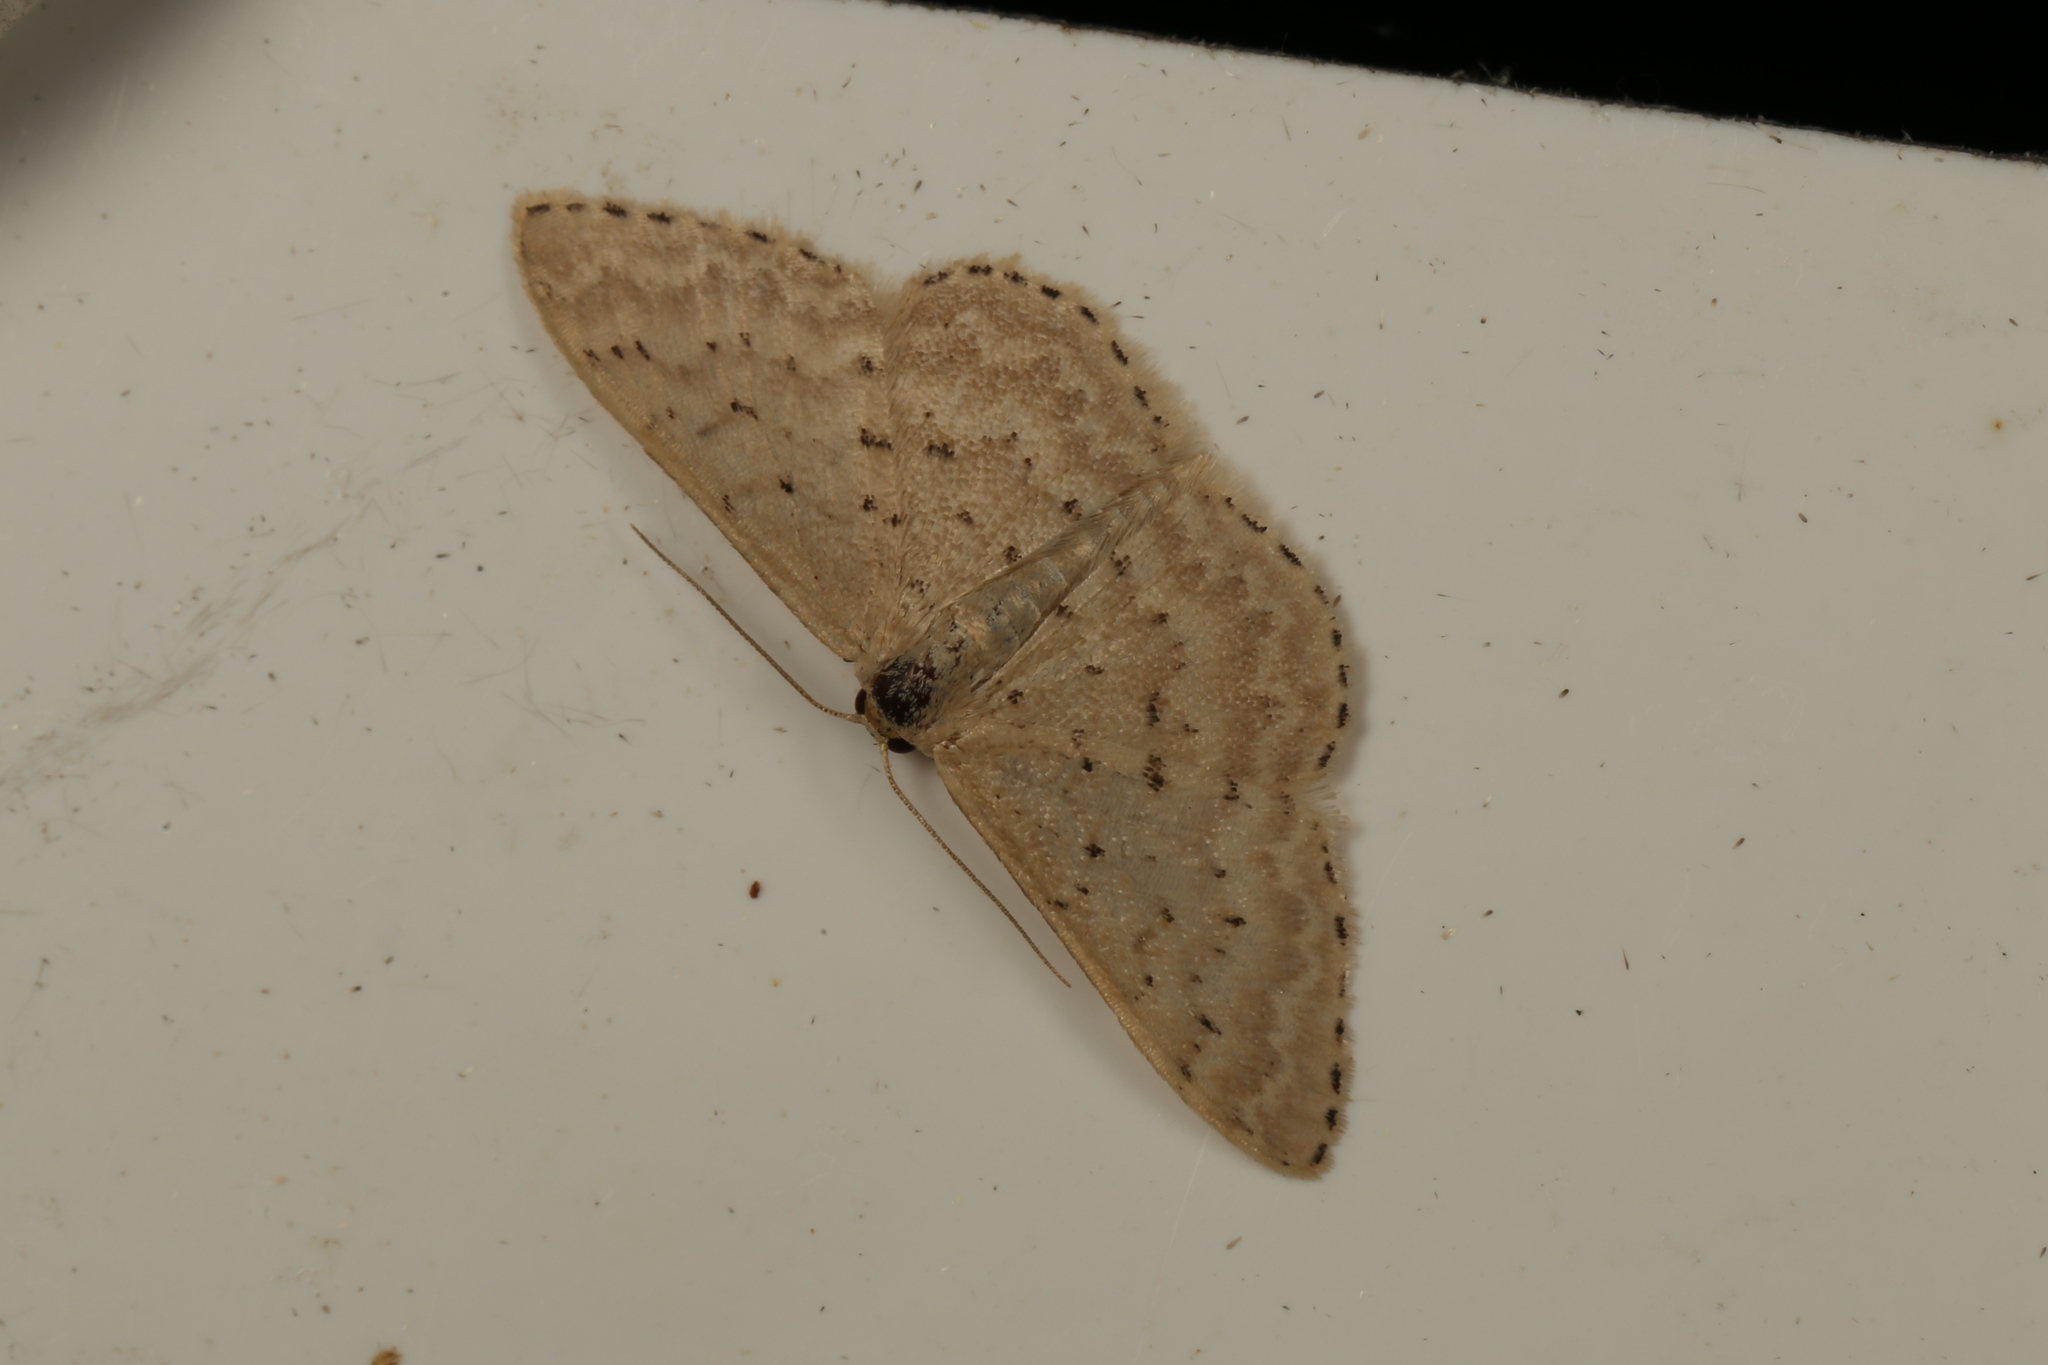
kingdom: Animalia
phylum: Arthropoda
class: Insecta
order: Lepidoptera
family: Geometridae
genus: Idaea
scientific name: Idaea philocosma
